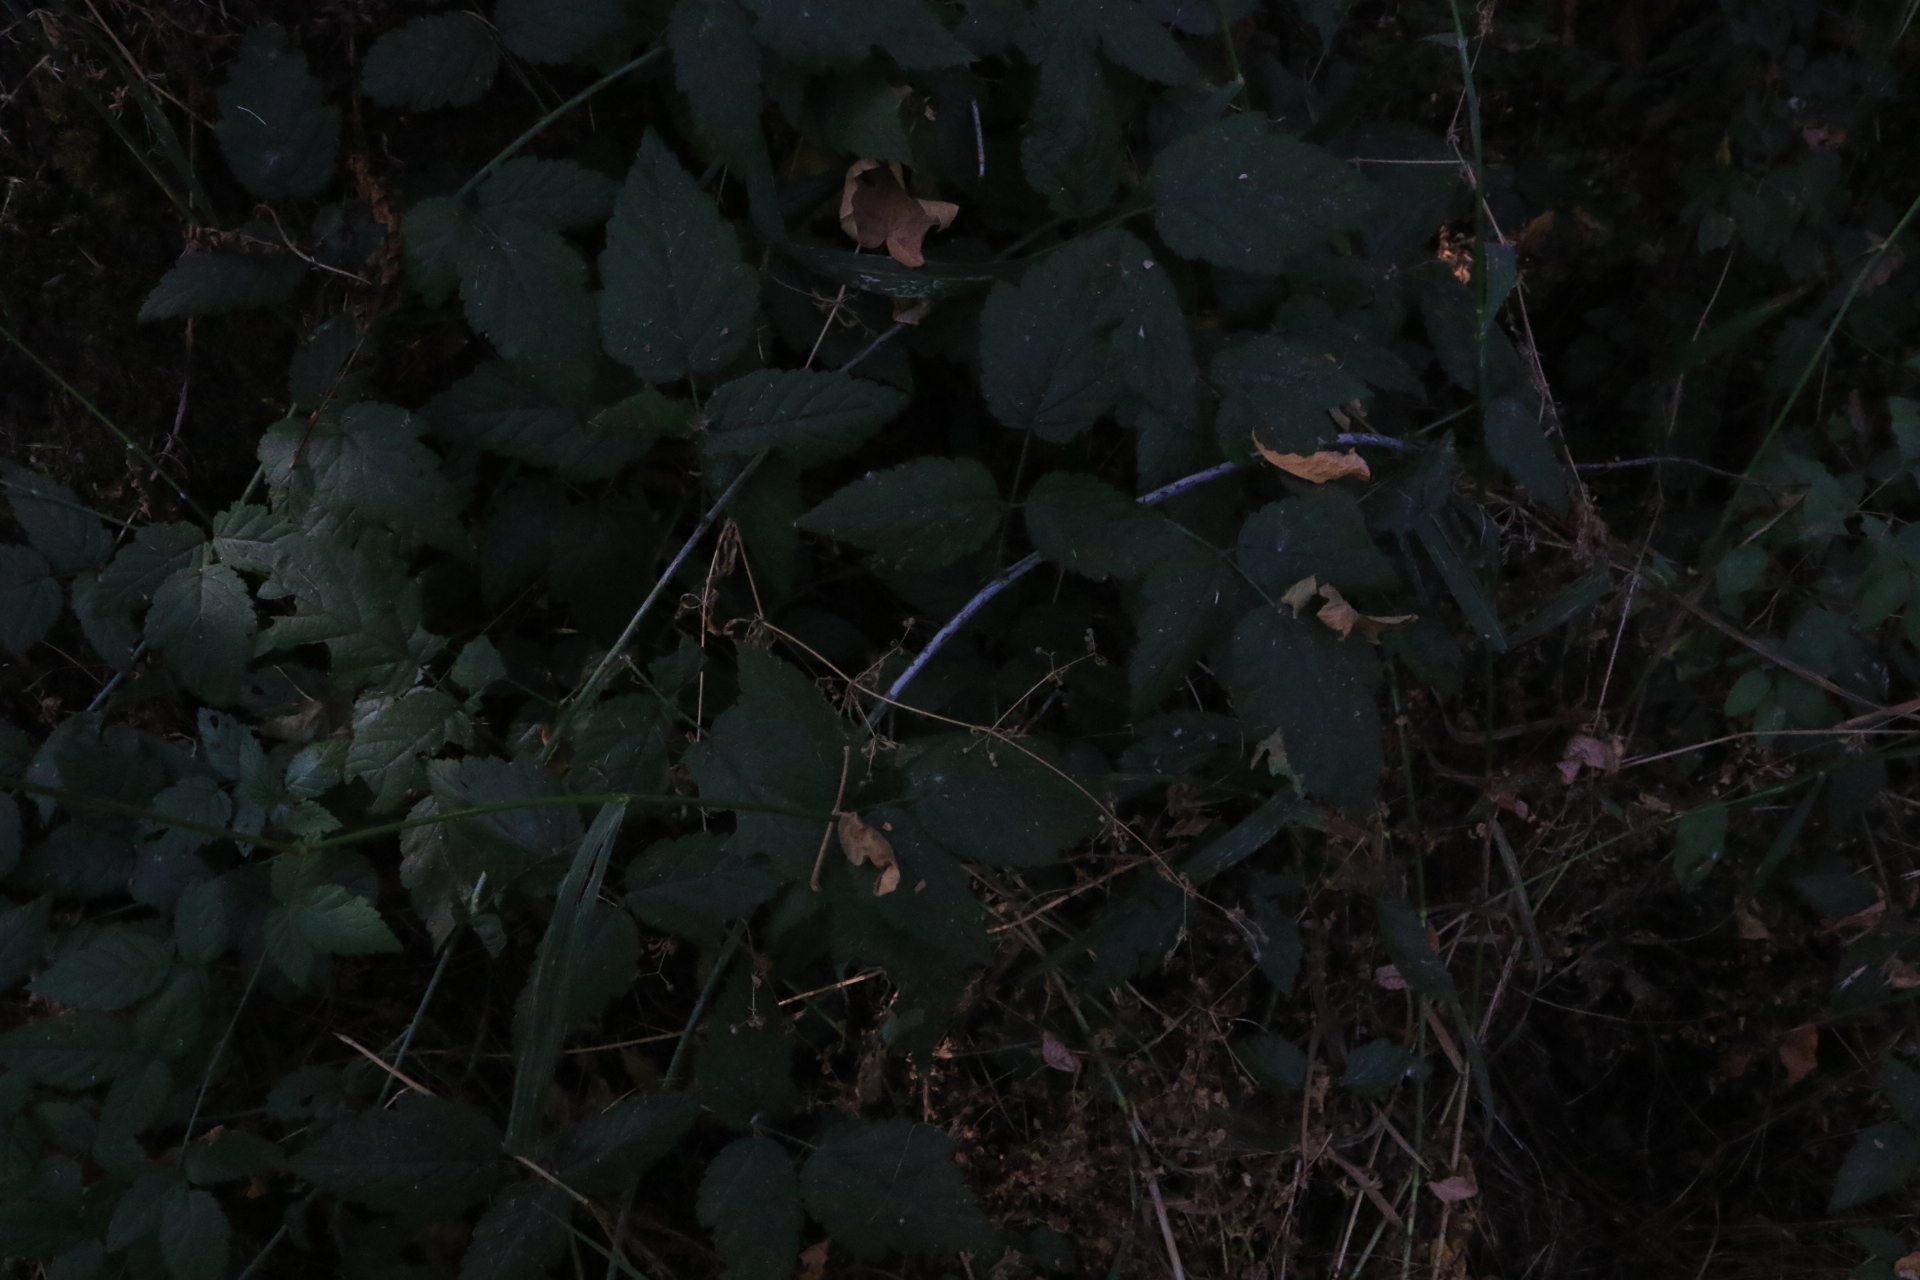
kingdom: Plantae
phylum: Tracheophyta
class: Magnoliopsida
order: Rosales
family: Rosaceae
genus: Rubus
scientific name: Rubus ursinus
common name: Pacific blackberry
